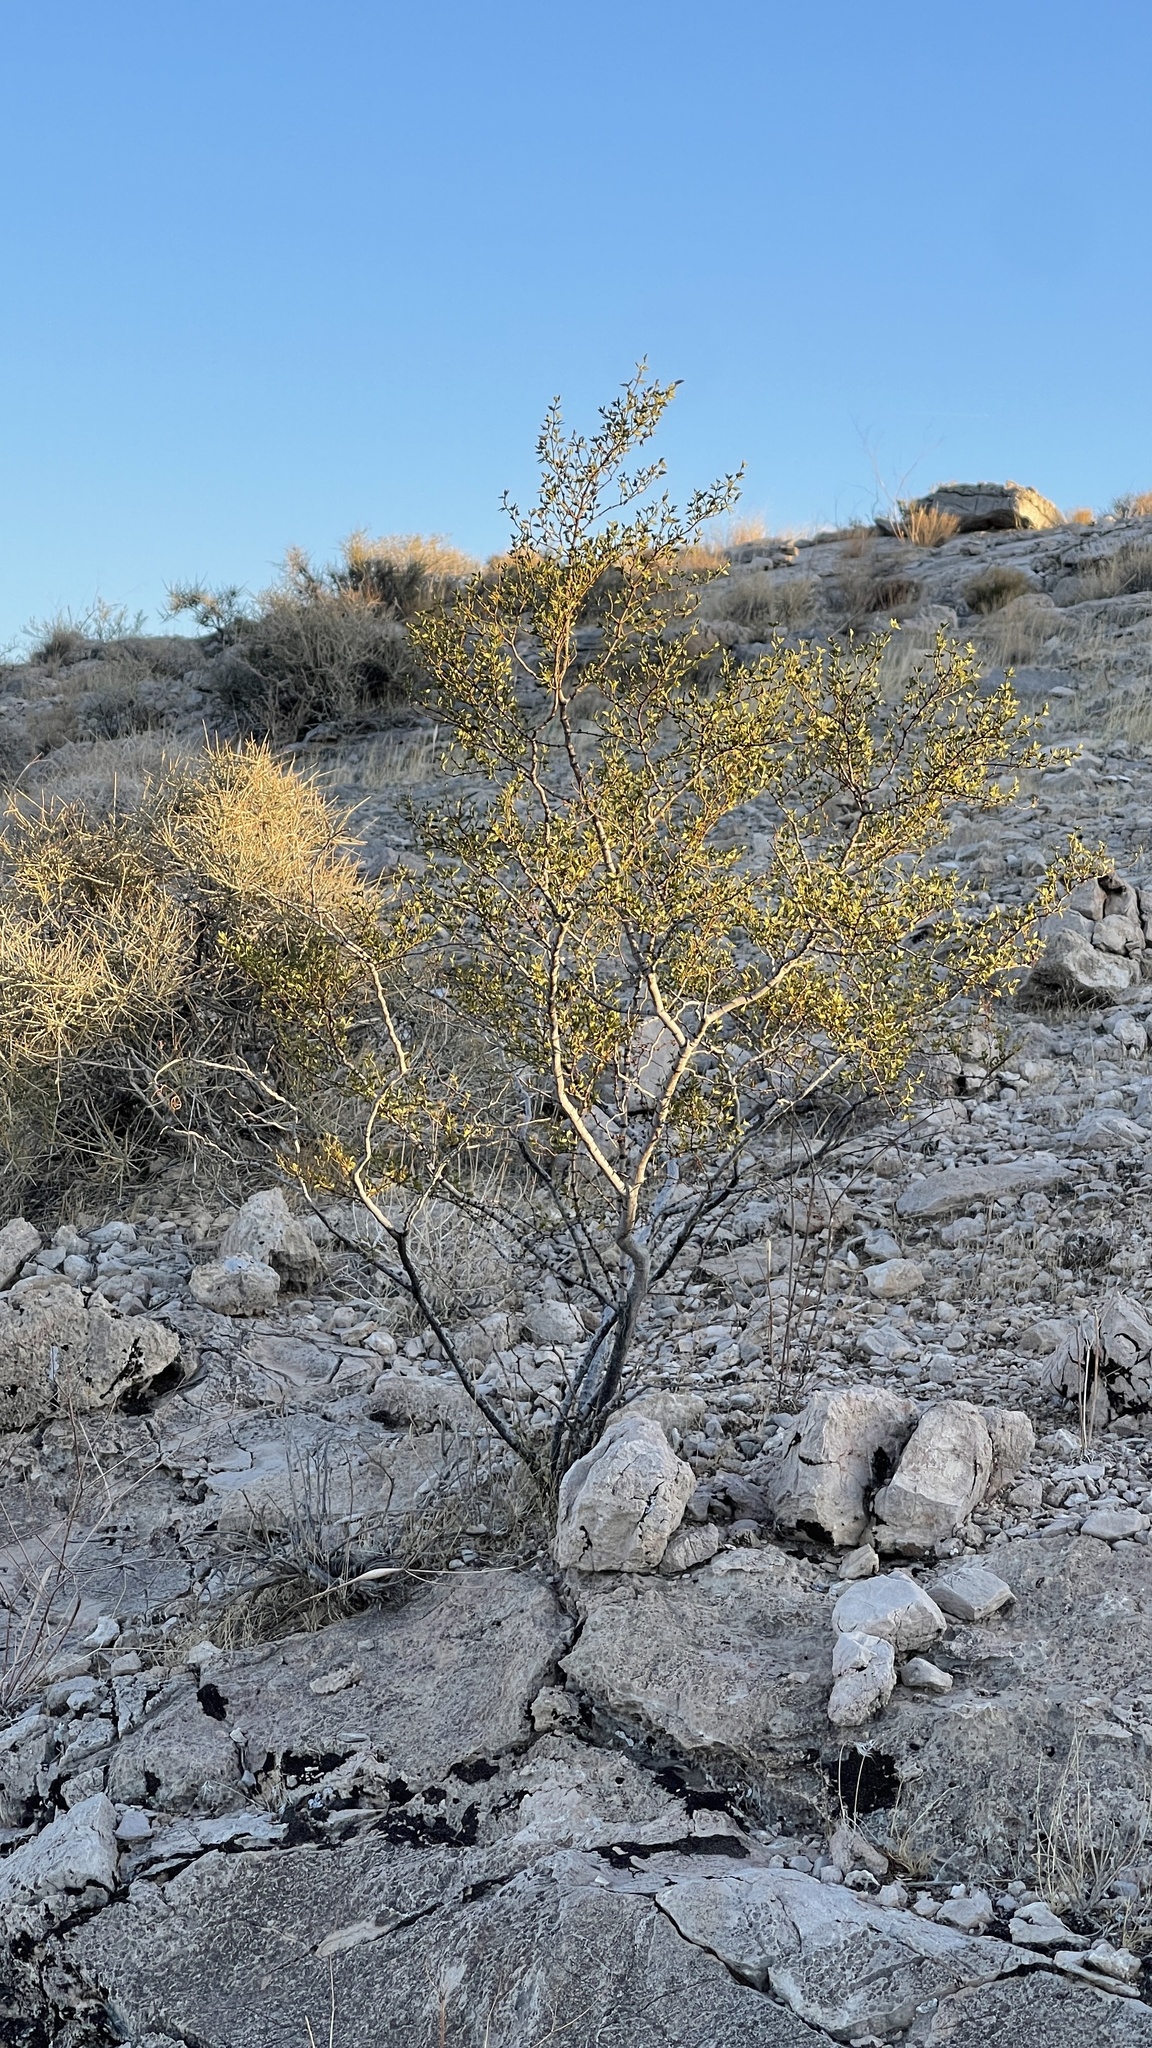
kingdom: Plantae
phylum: Tracheophyta
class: Magnoliopsida
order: Zygophyllales
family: Zygophyllaceae
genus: Larrea
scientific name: Larrea tridentata
